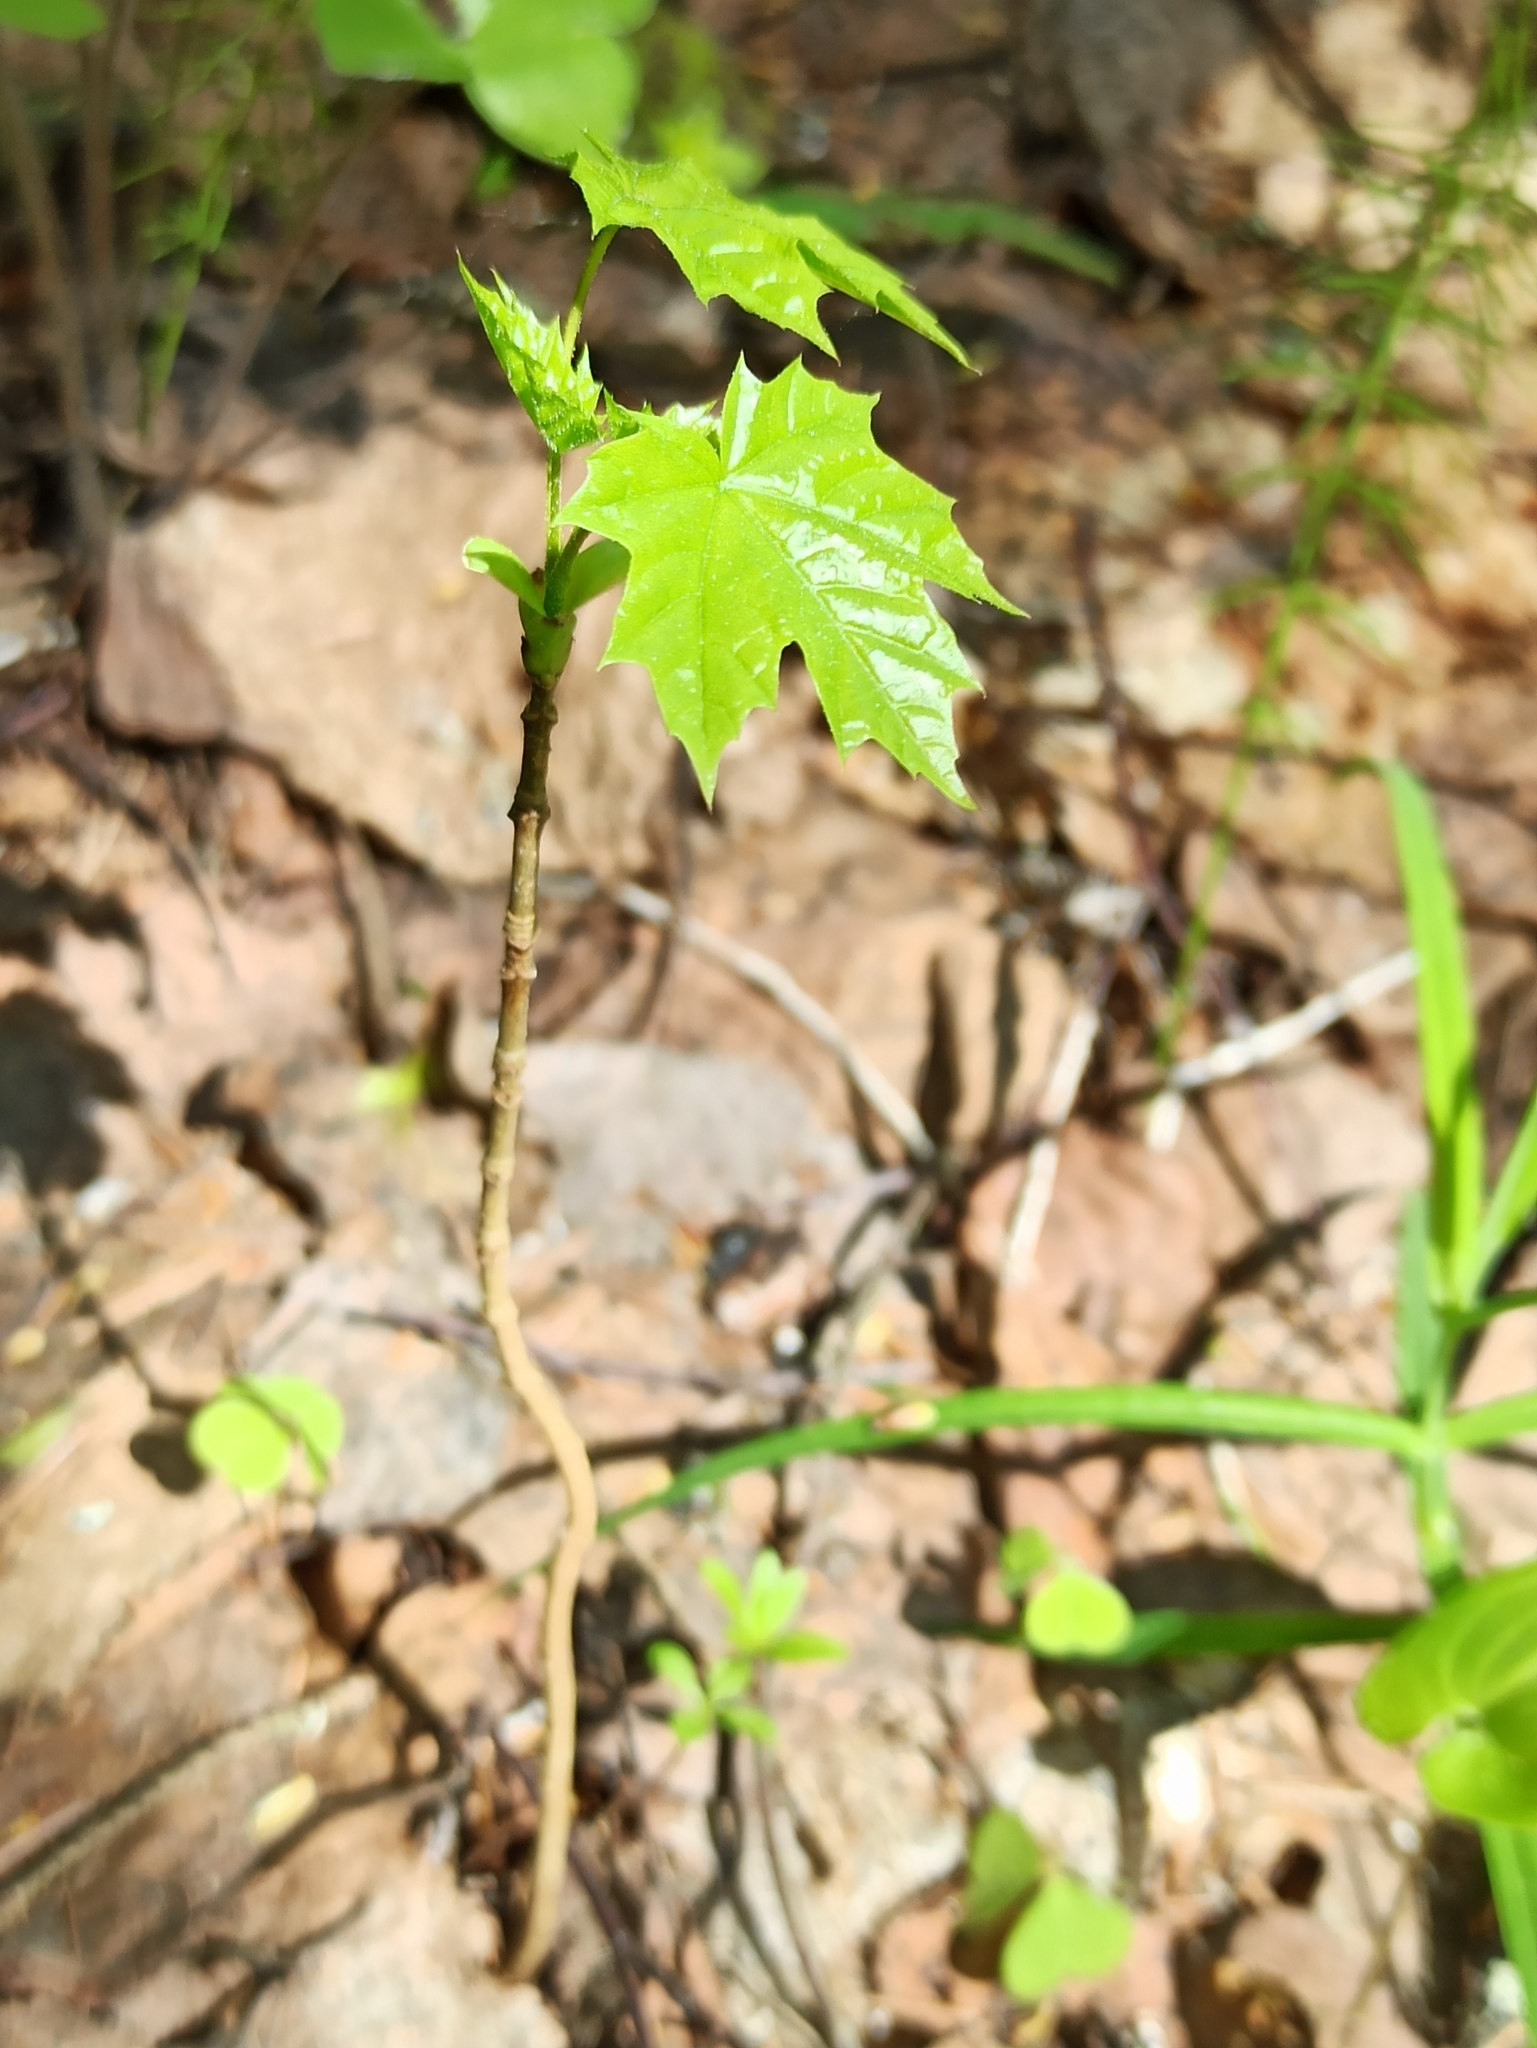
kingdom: Plantae
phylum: Tracheophyta
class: Magnoliopsida
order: Sapindales
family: Sapindaceae
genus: Acer
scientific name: Acer platanoides
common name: Norway maple
